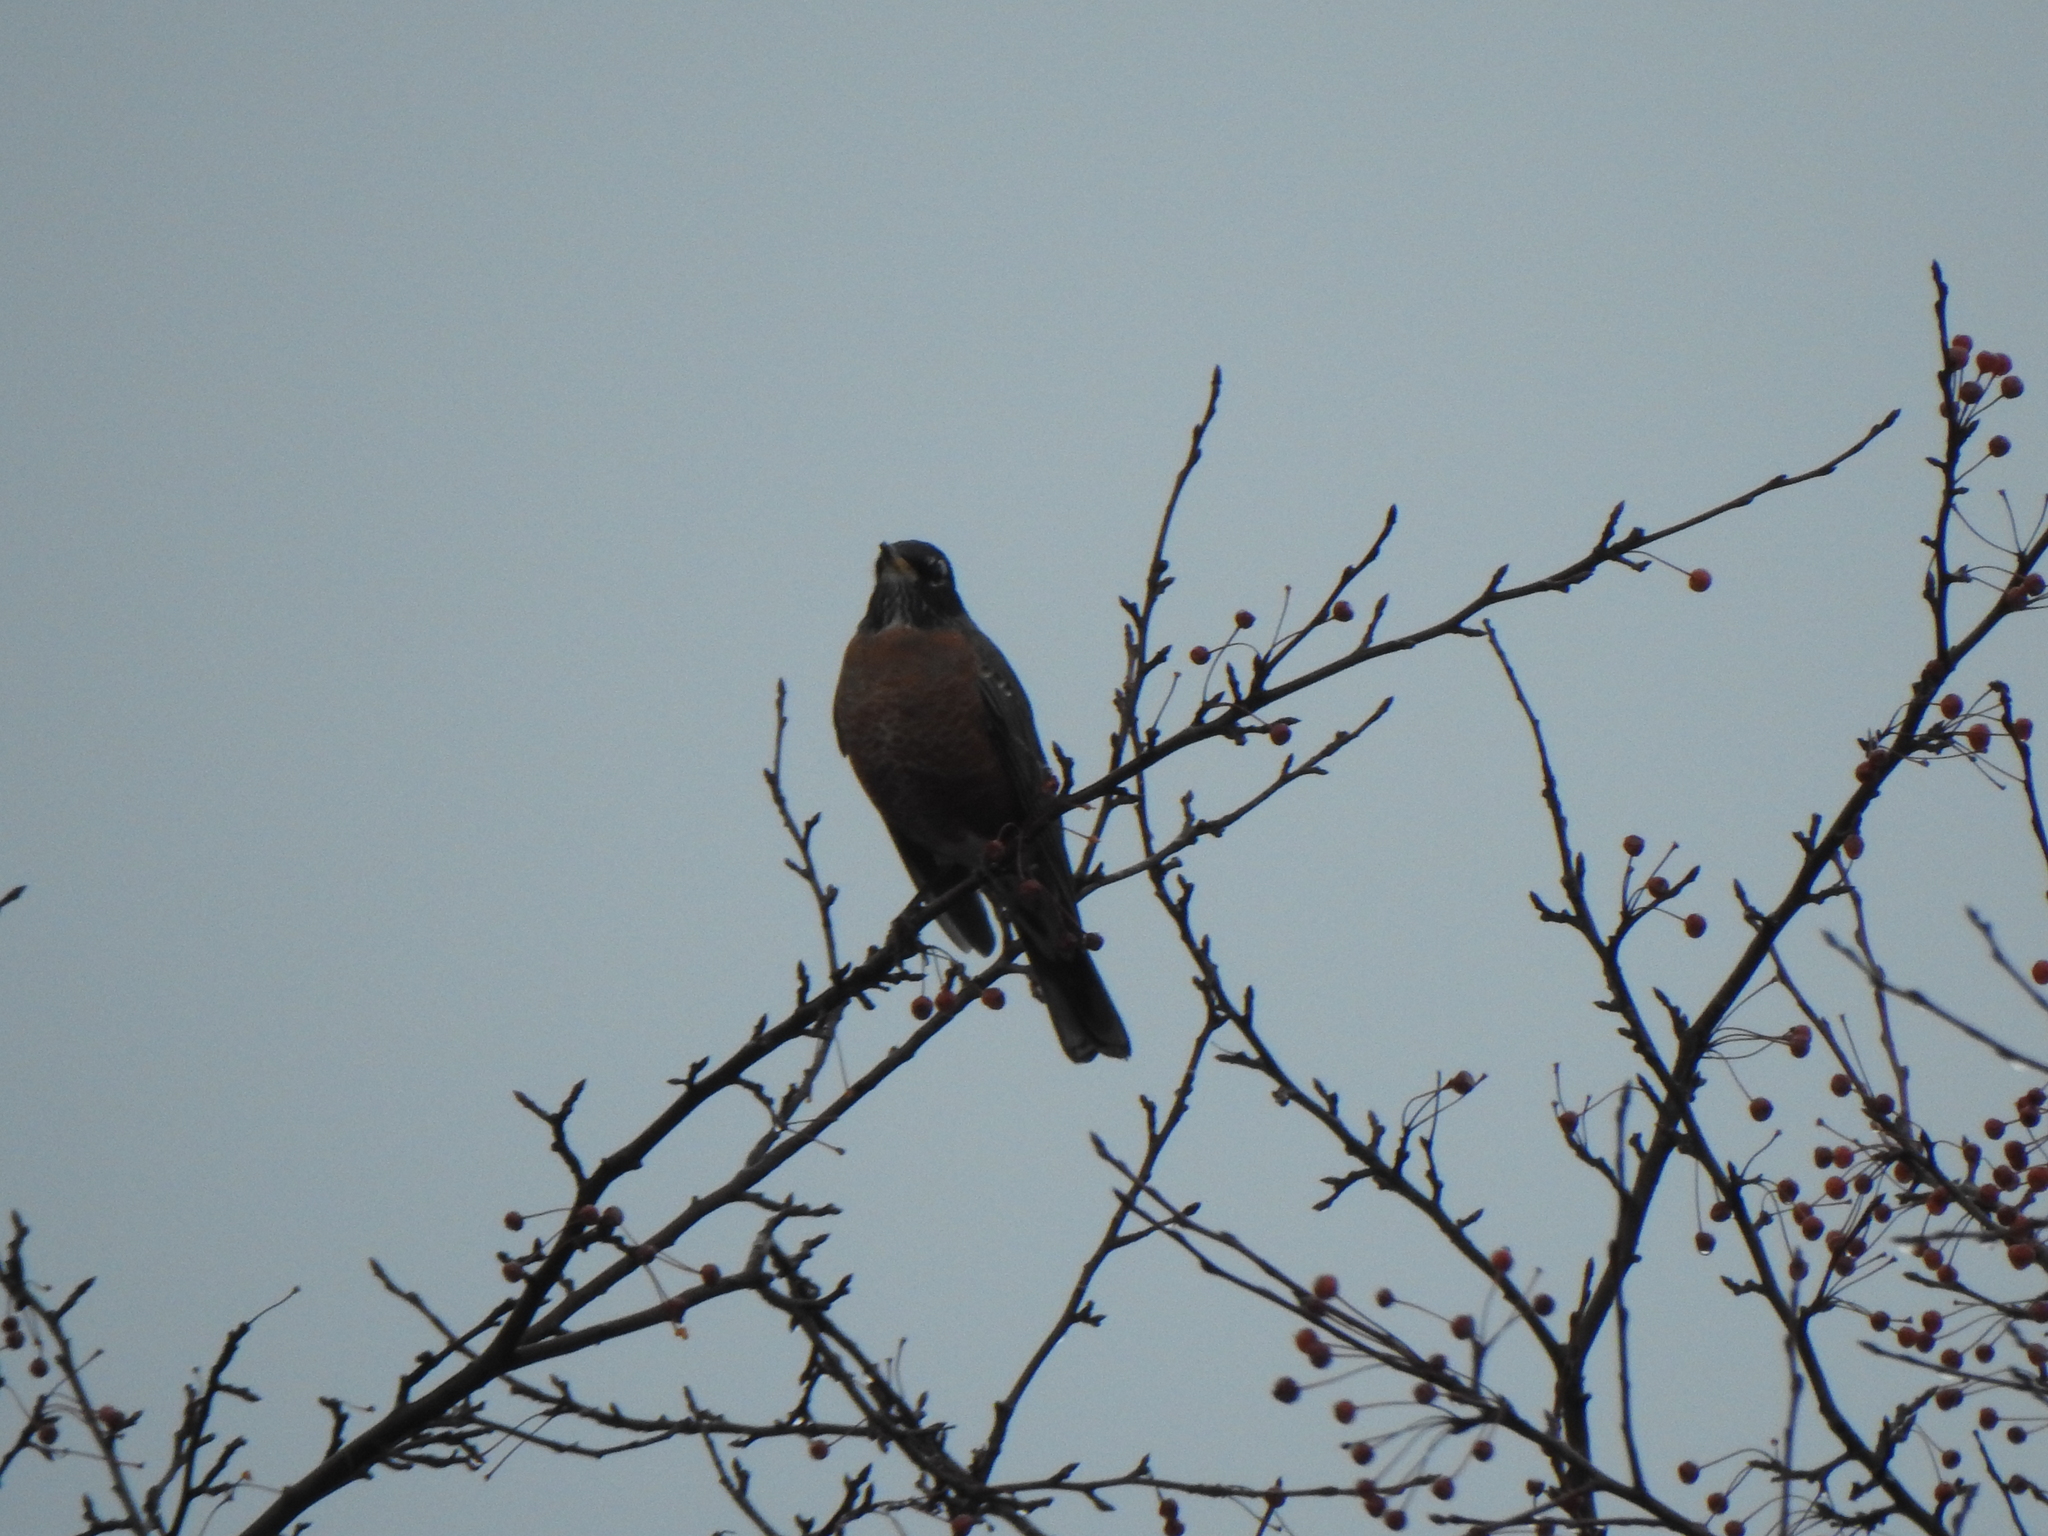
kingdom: Animalia
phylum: Chordata
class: Aves
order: Passeriformes
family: Turdidae
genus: Turdus
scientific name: Turdus migratorius
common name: American robin
